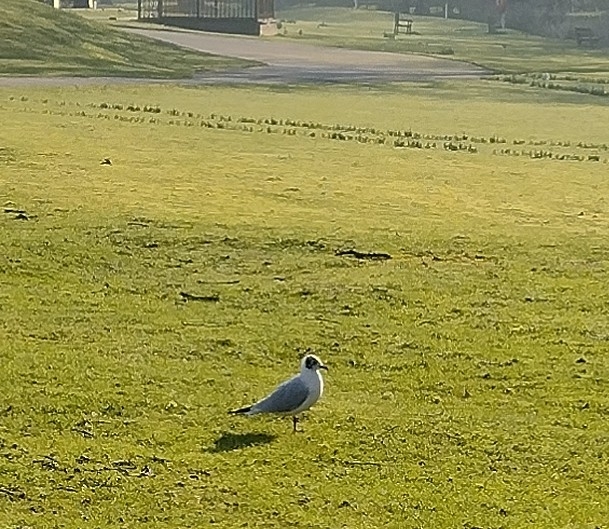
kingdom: Animalia
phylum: Chordata
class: Aves
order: Charadriiformes
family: Laridae
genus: Chroicocephalus
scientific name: Chroicocephalus ridibundus
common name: Black-headed gull
